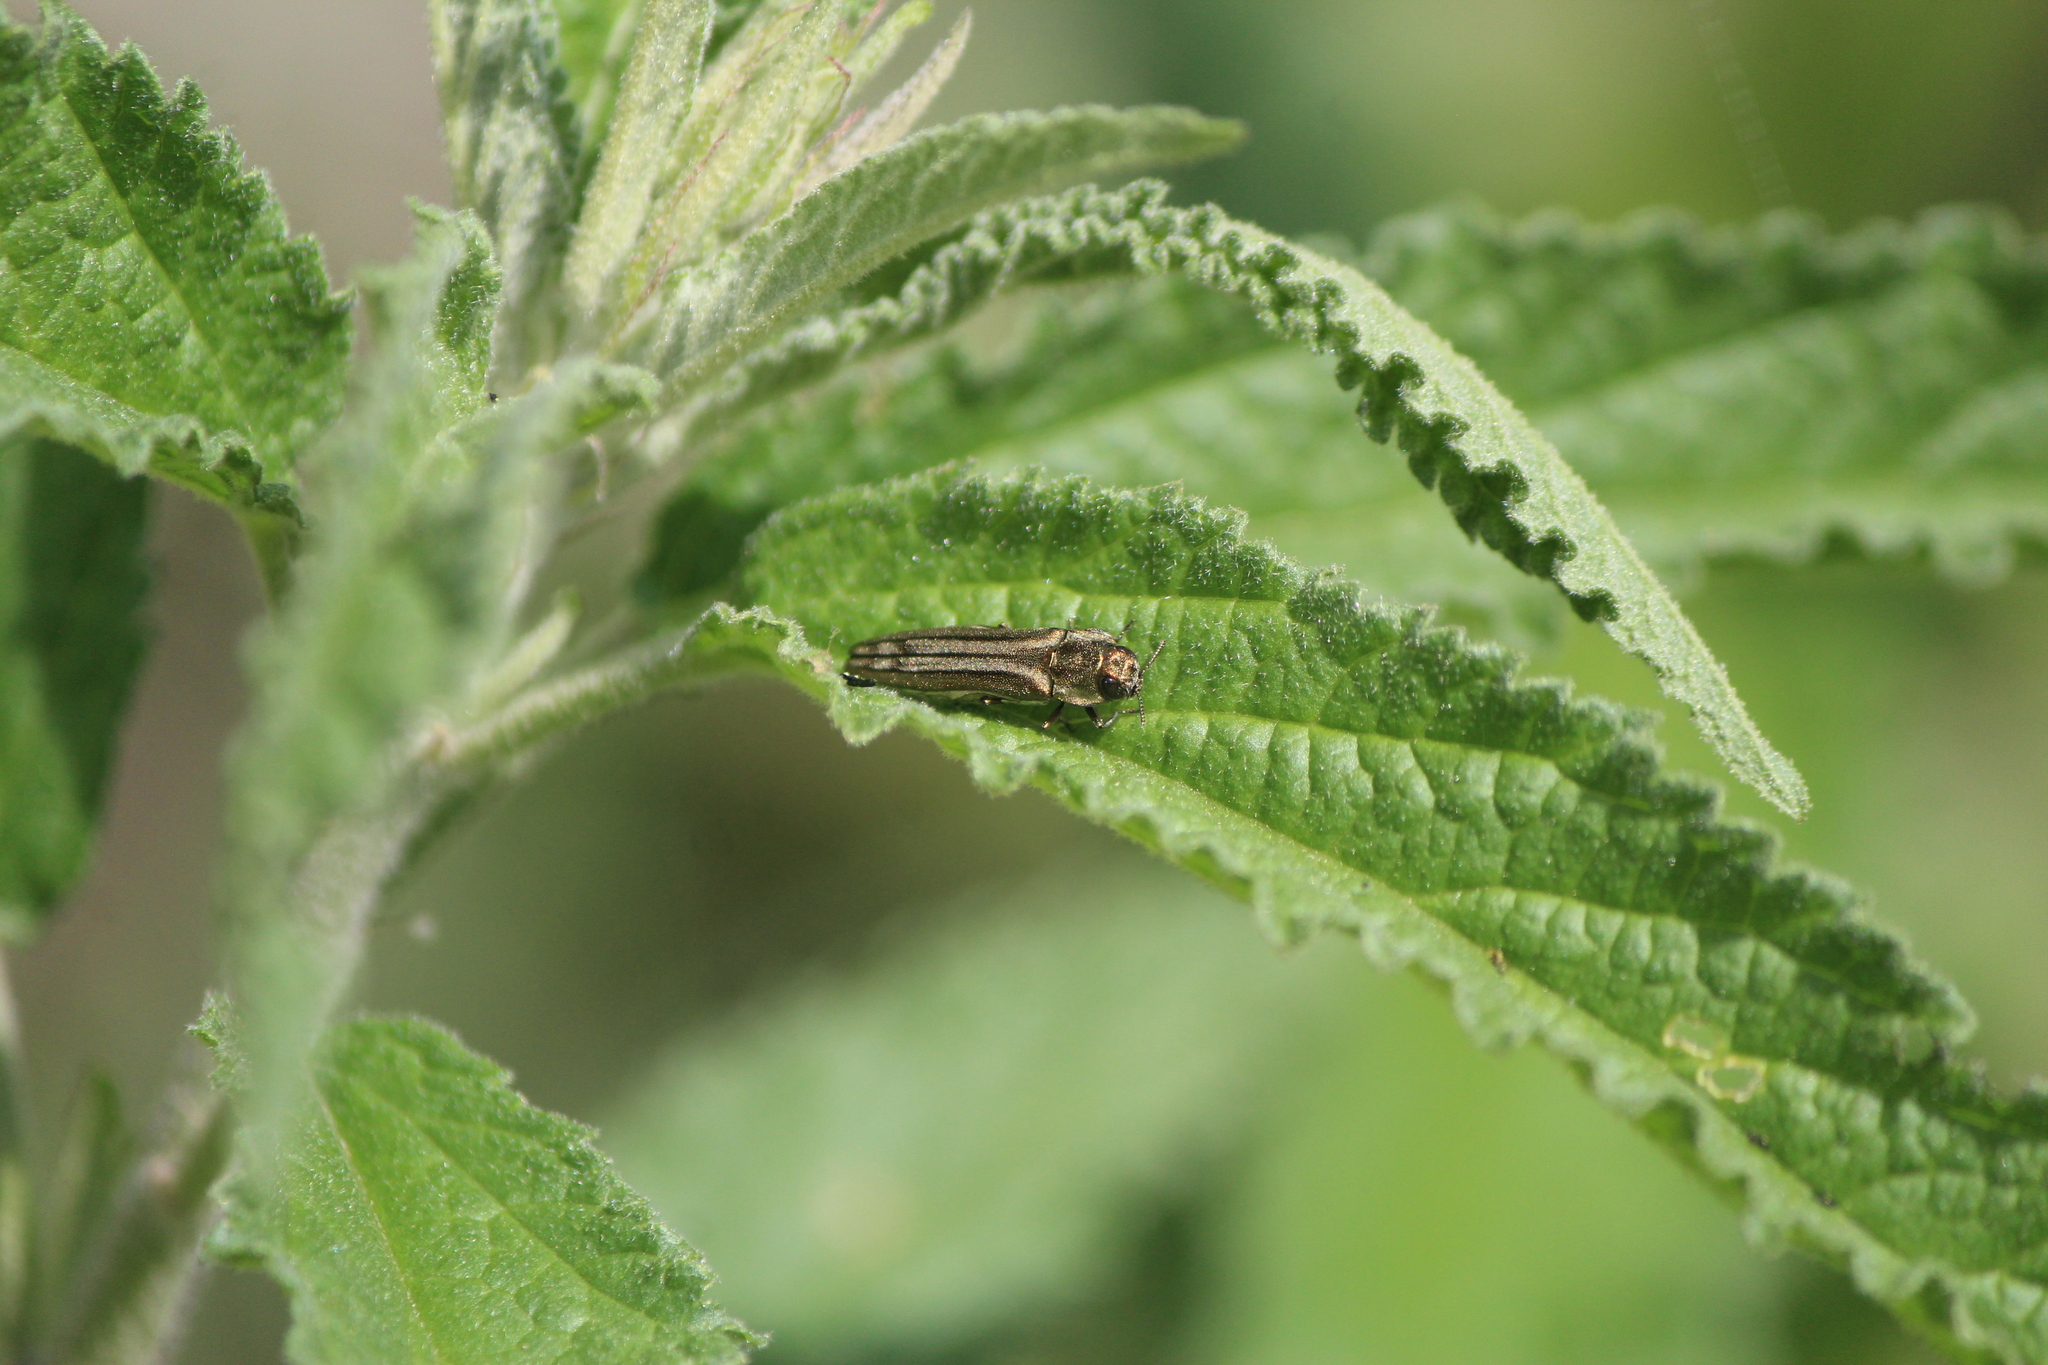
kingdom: Animalia
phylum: Arthropoda
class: Insecta
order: Coleoptera
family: Buprestidae
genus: Agrilus
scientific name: Agrilus aureus
